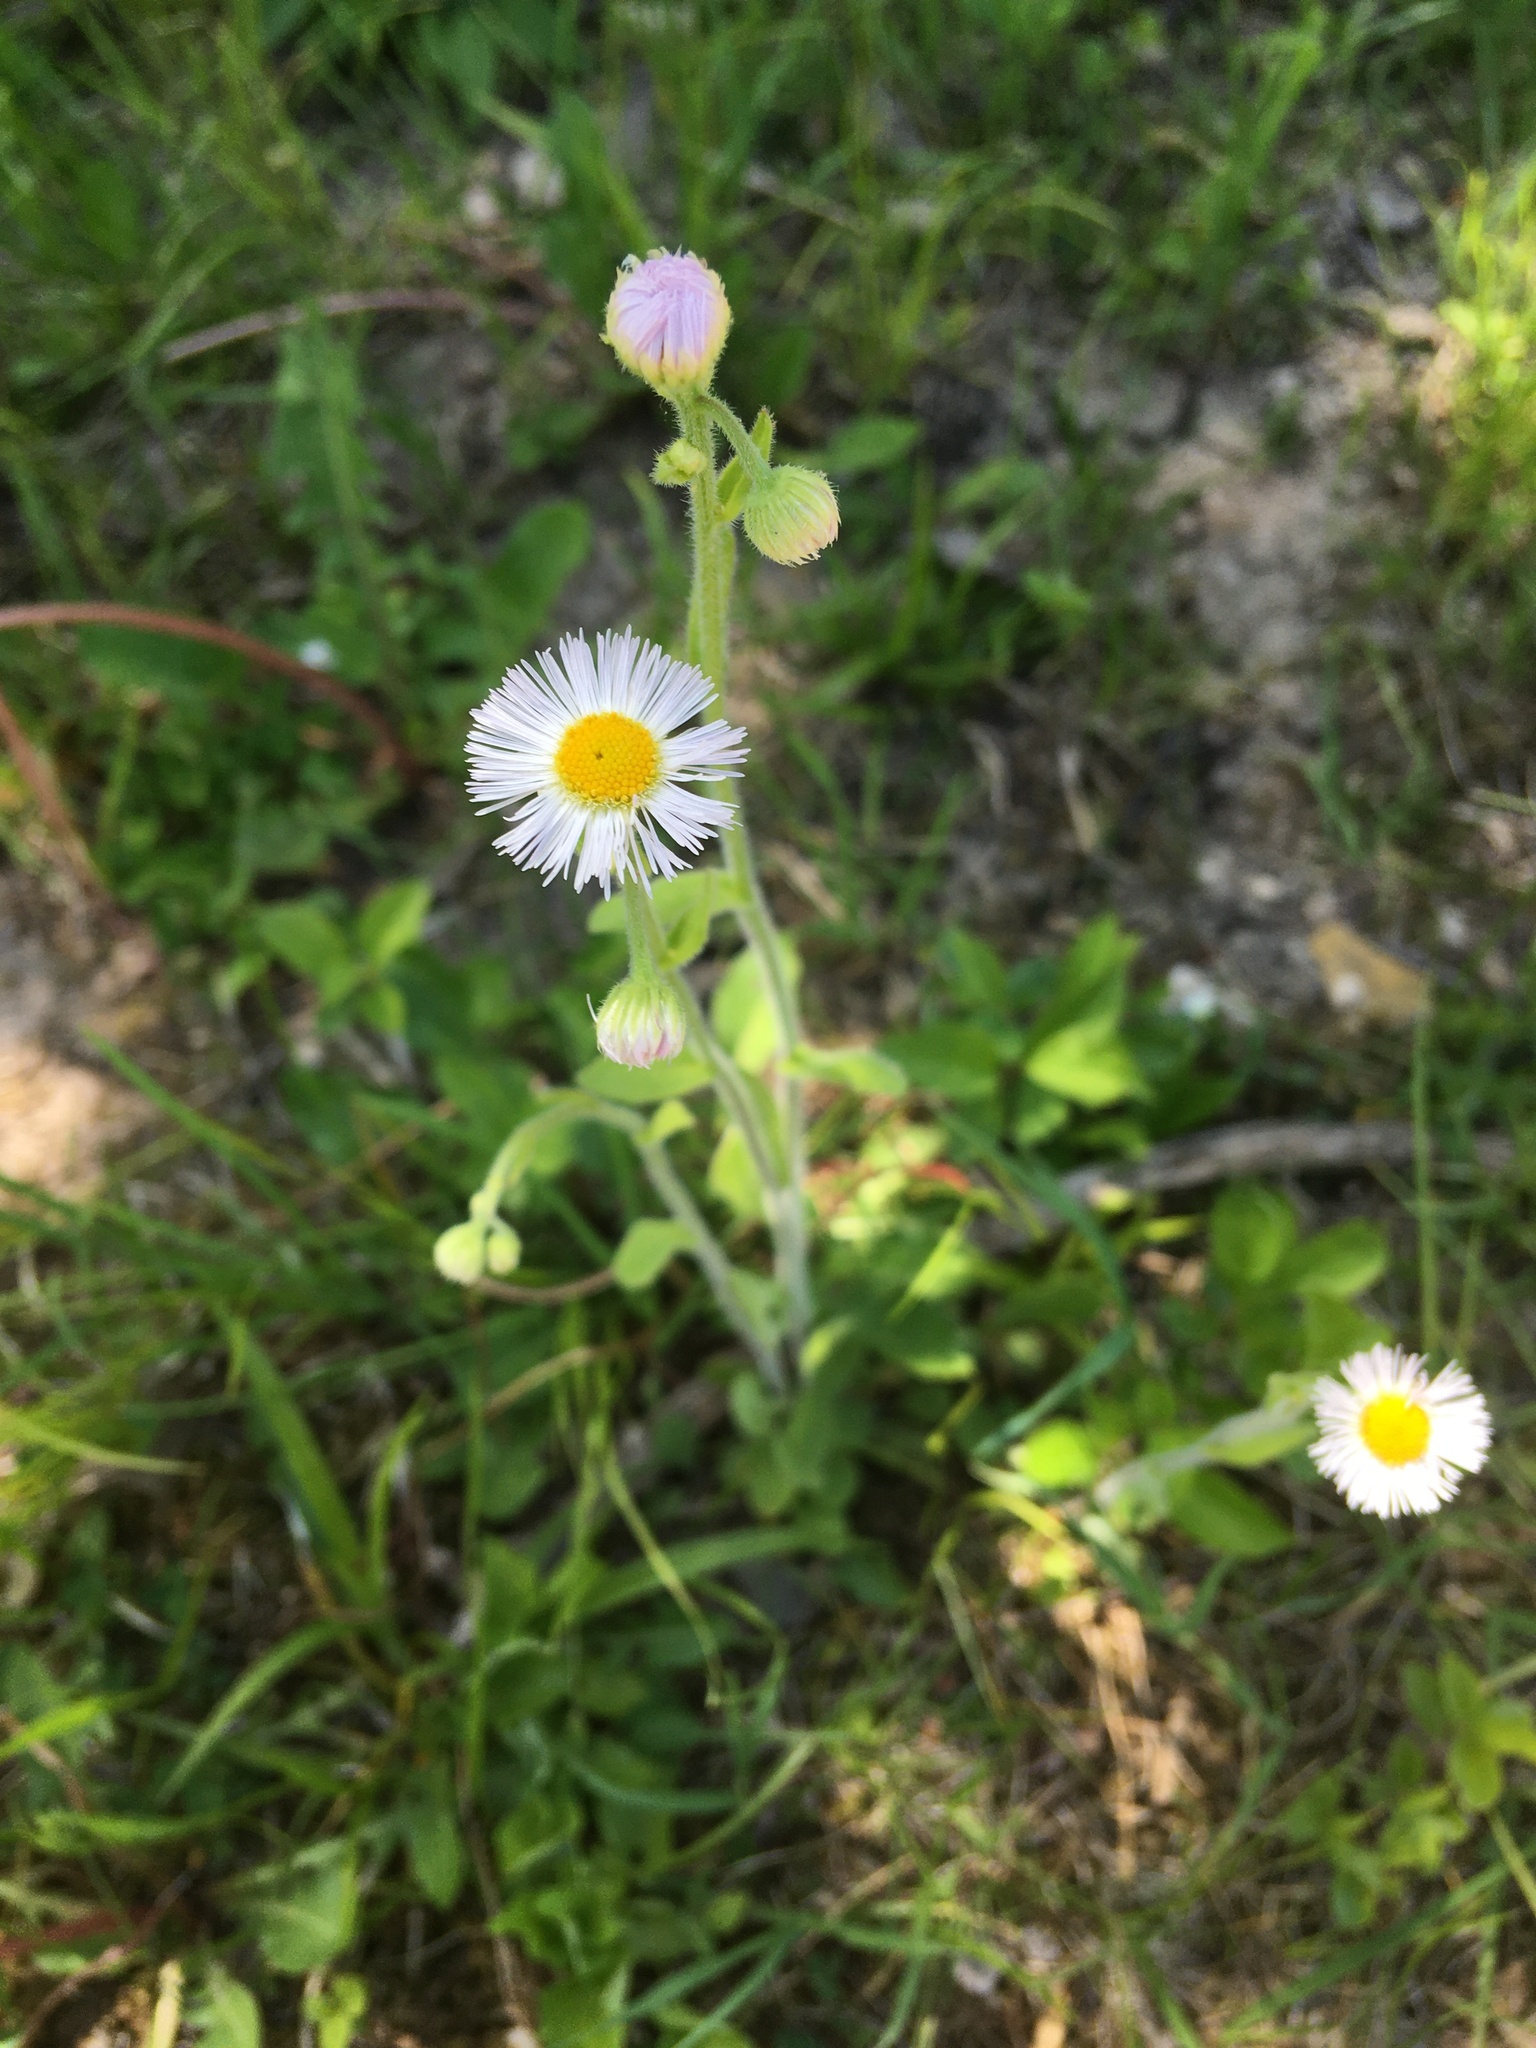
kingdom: Plantae
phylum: Tracheophyta
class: Magnoliopsida
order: Asterales
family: Asteraceae
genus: Erigeron
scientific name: Erigeron philadelphicus
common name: Robin's-plantain
